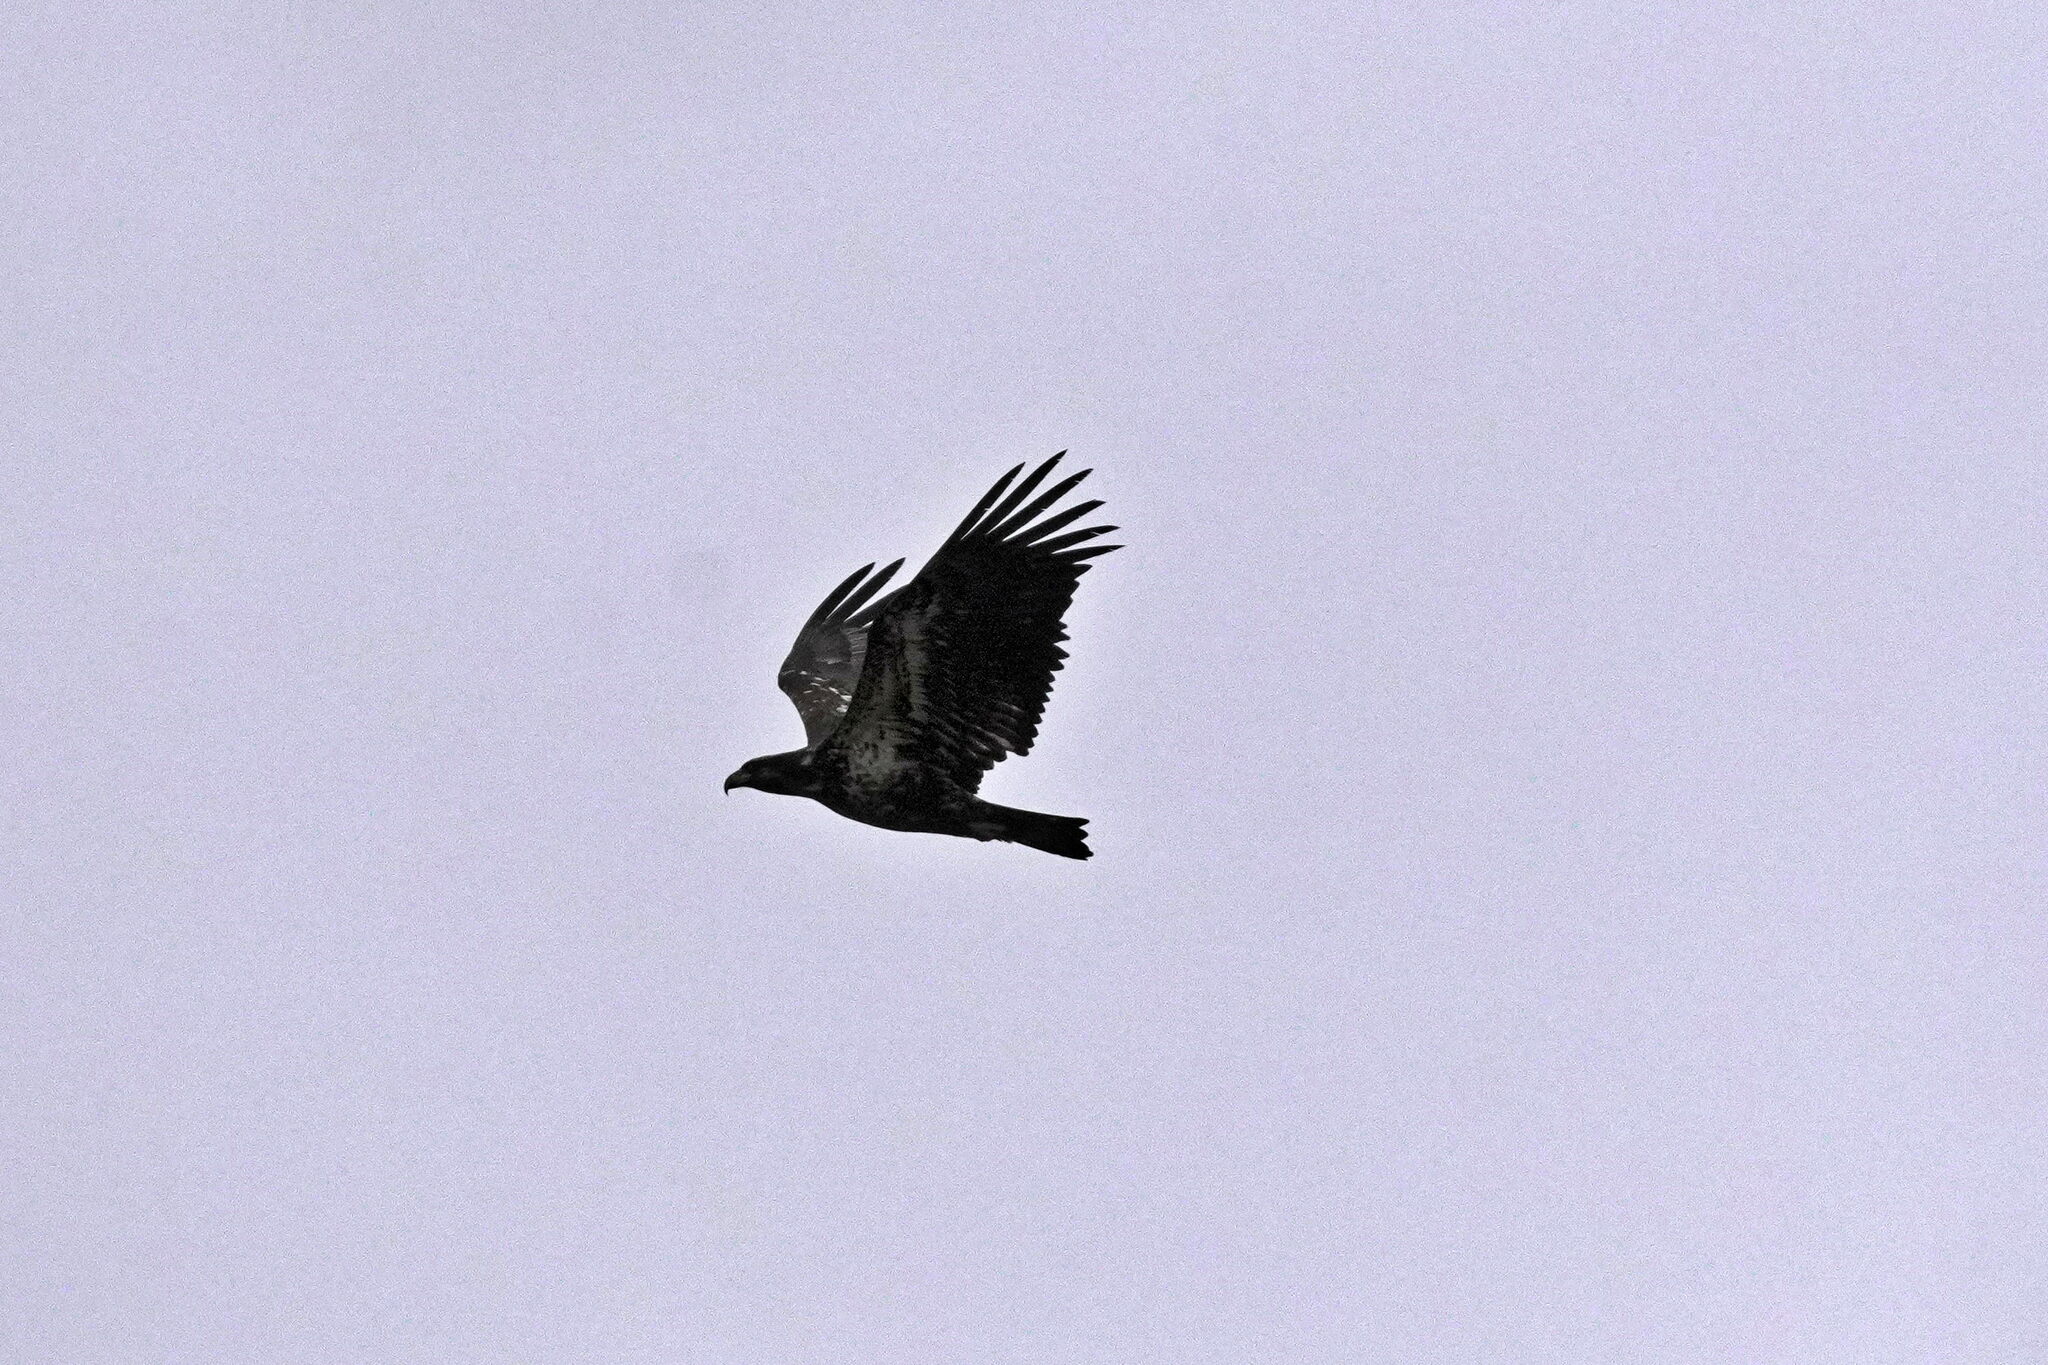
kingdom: Animalia
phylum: Chordata
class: Aves
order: Accipitriformes
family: Accipitridae
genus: Haliaeetus
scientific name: Haliaeetus leucocephalus
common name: Bald eagle
